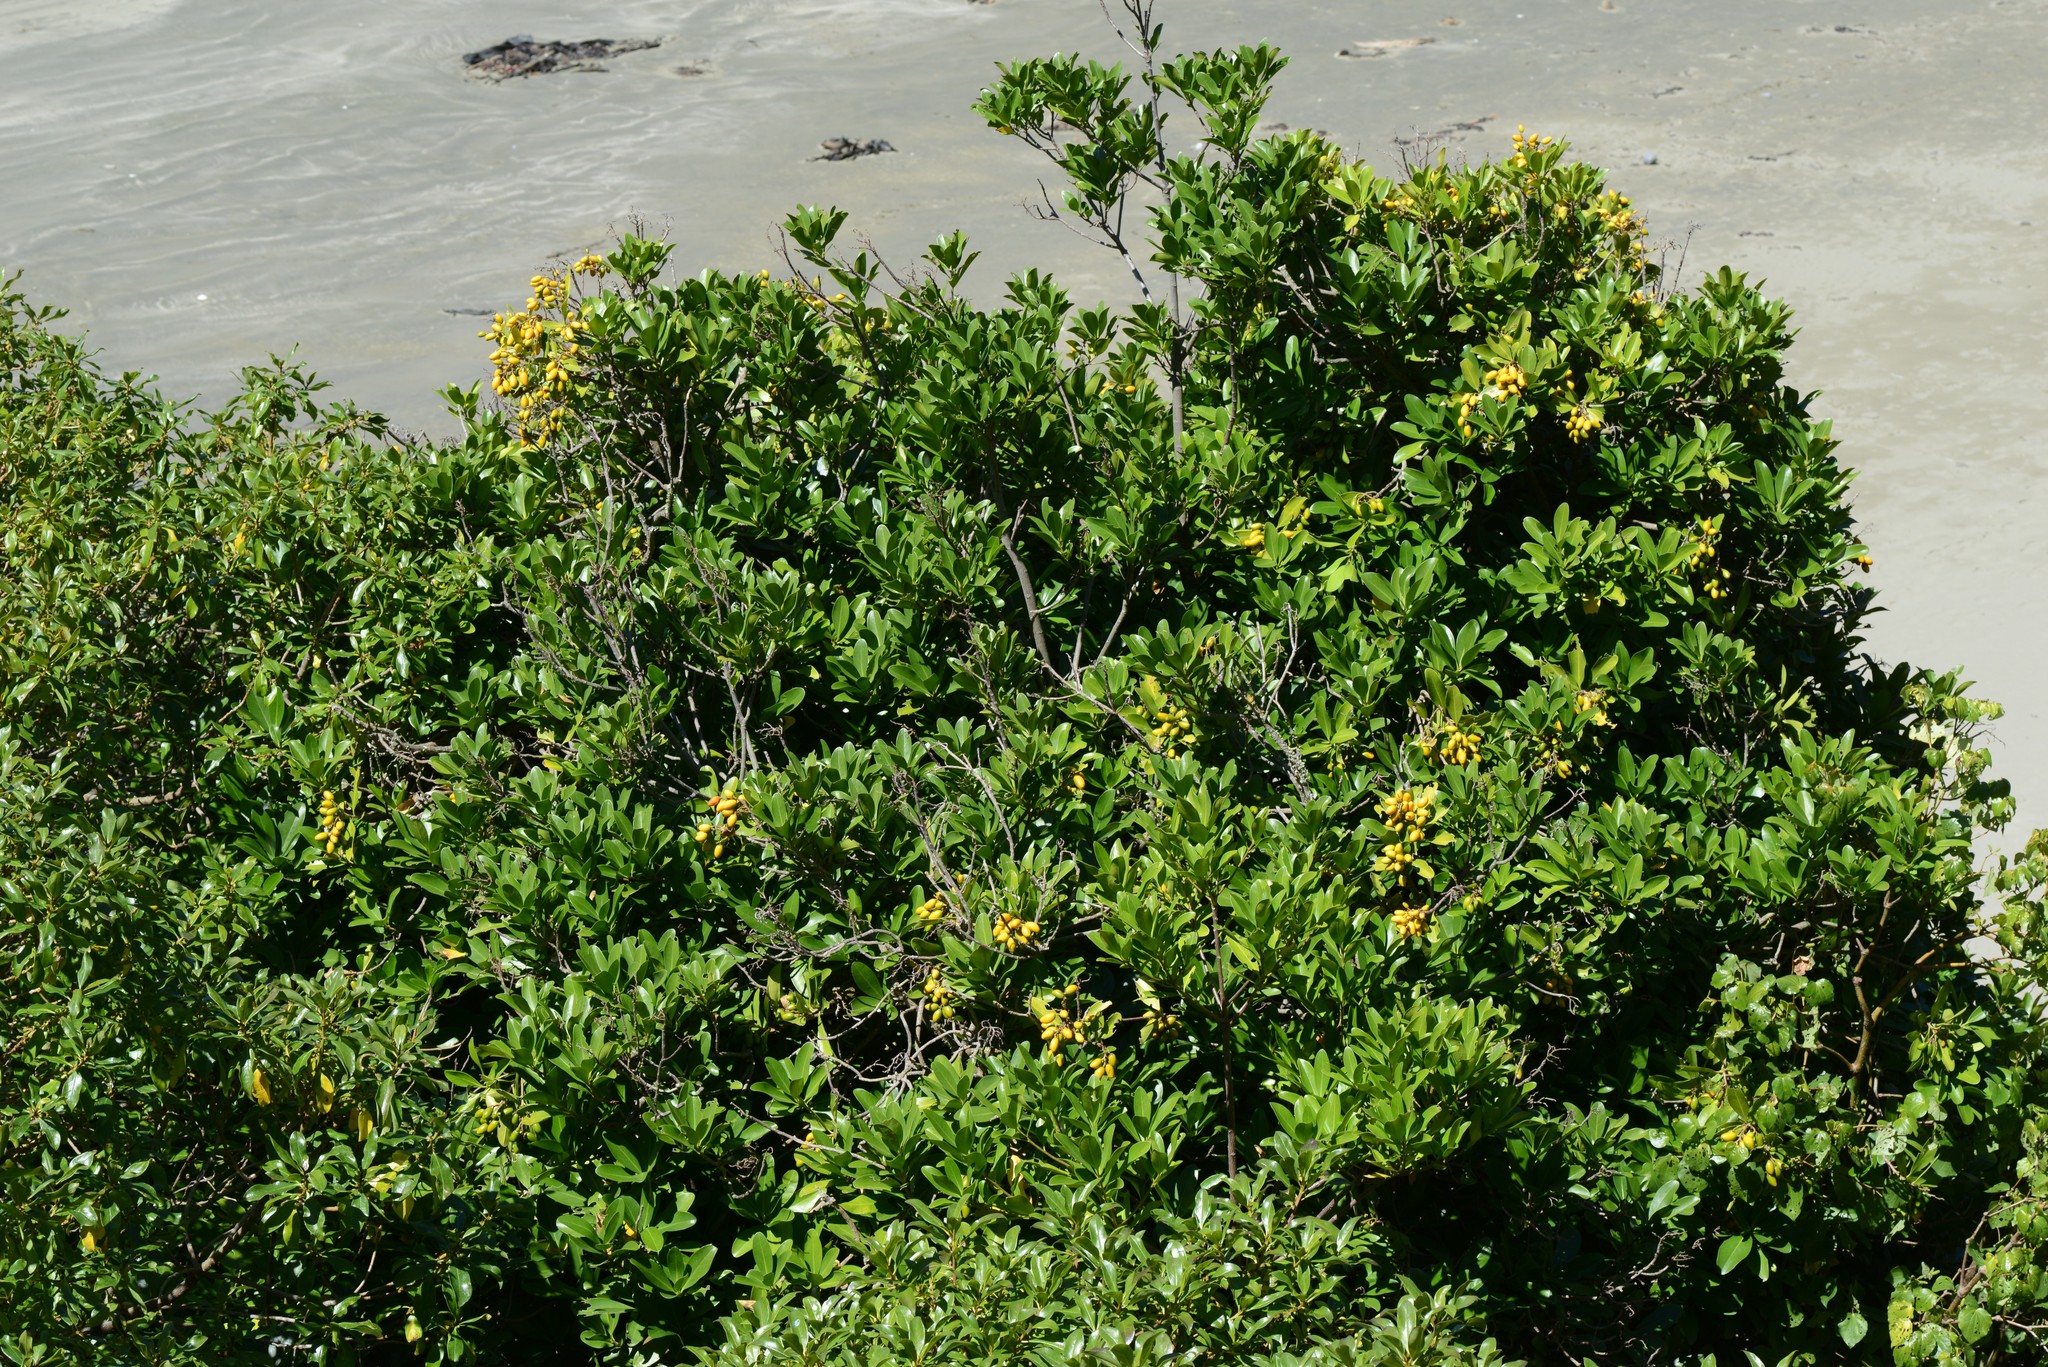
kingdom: Plantae
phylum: Tracheophyta
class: Magnoliopsida
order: Cucurbitales
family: Corynocarpaceae
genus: Corynocarpus
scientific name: Corynocarpus laevigatus
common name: New zealand laurel
